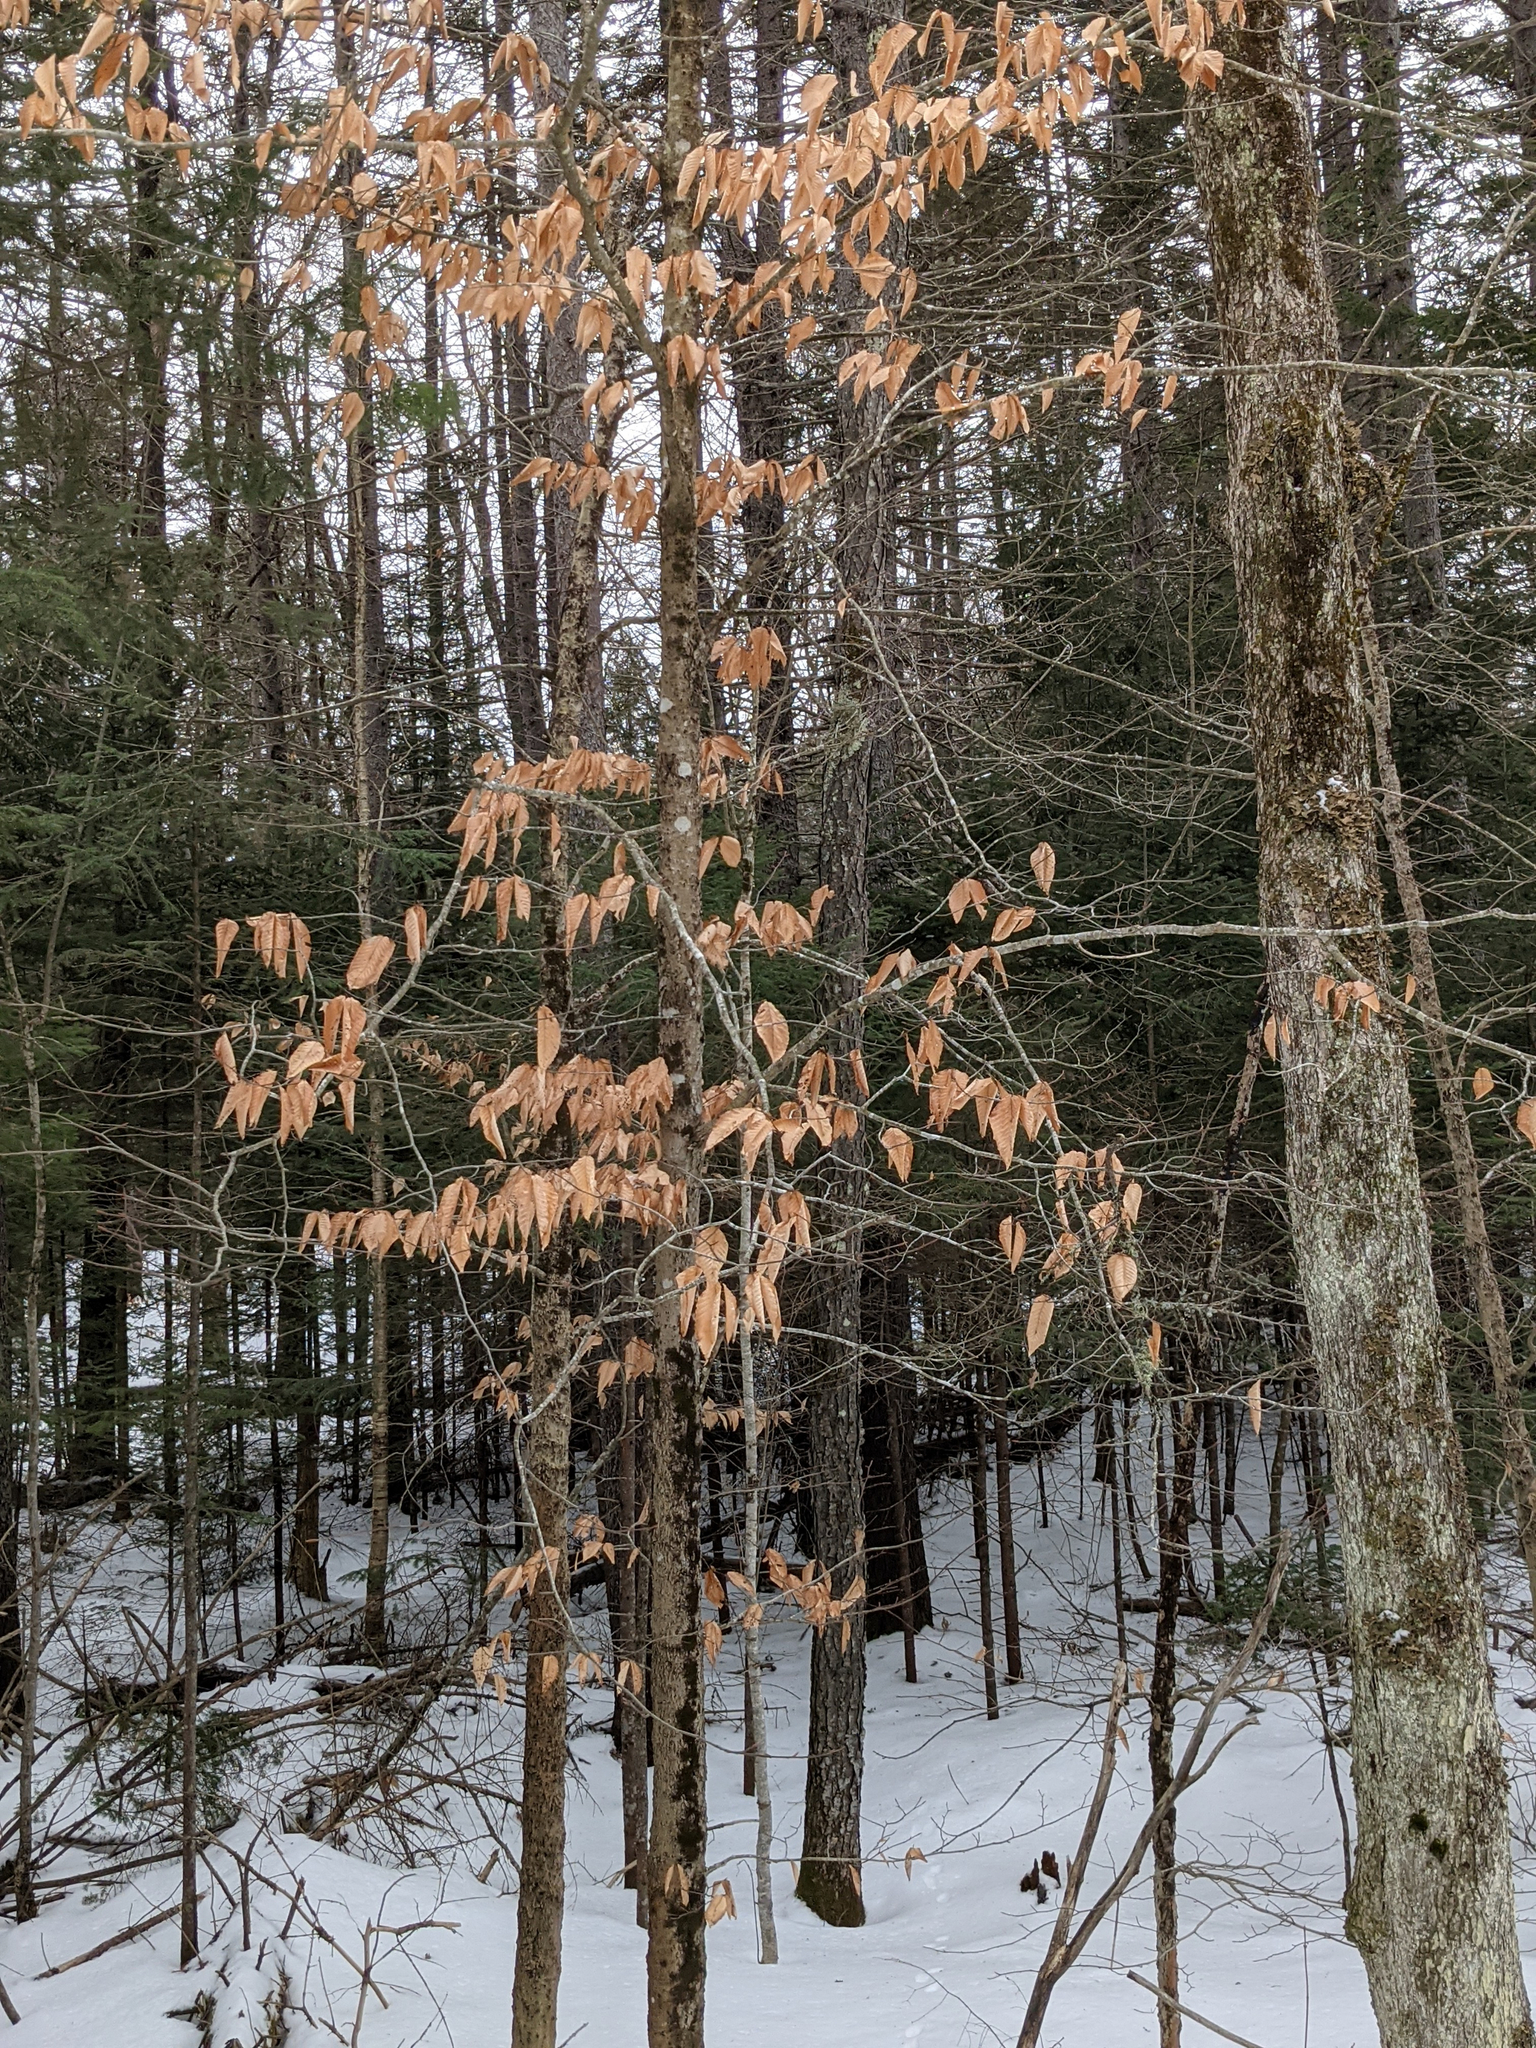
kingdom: Plantae
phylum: Tracheophyta
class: Magnoliopsida
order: Fagales
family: Fagaceae
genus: Fagus
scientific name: Fagus grandifolia
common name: American beech
